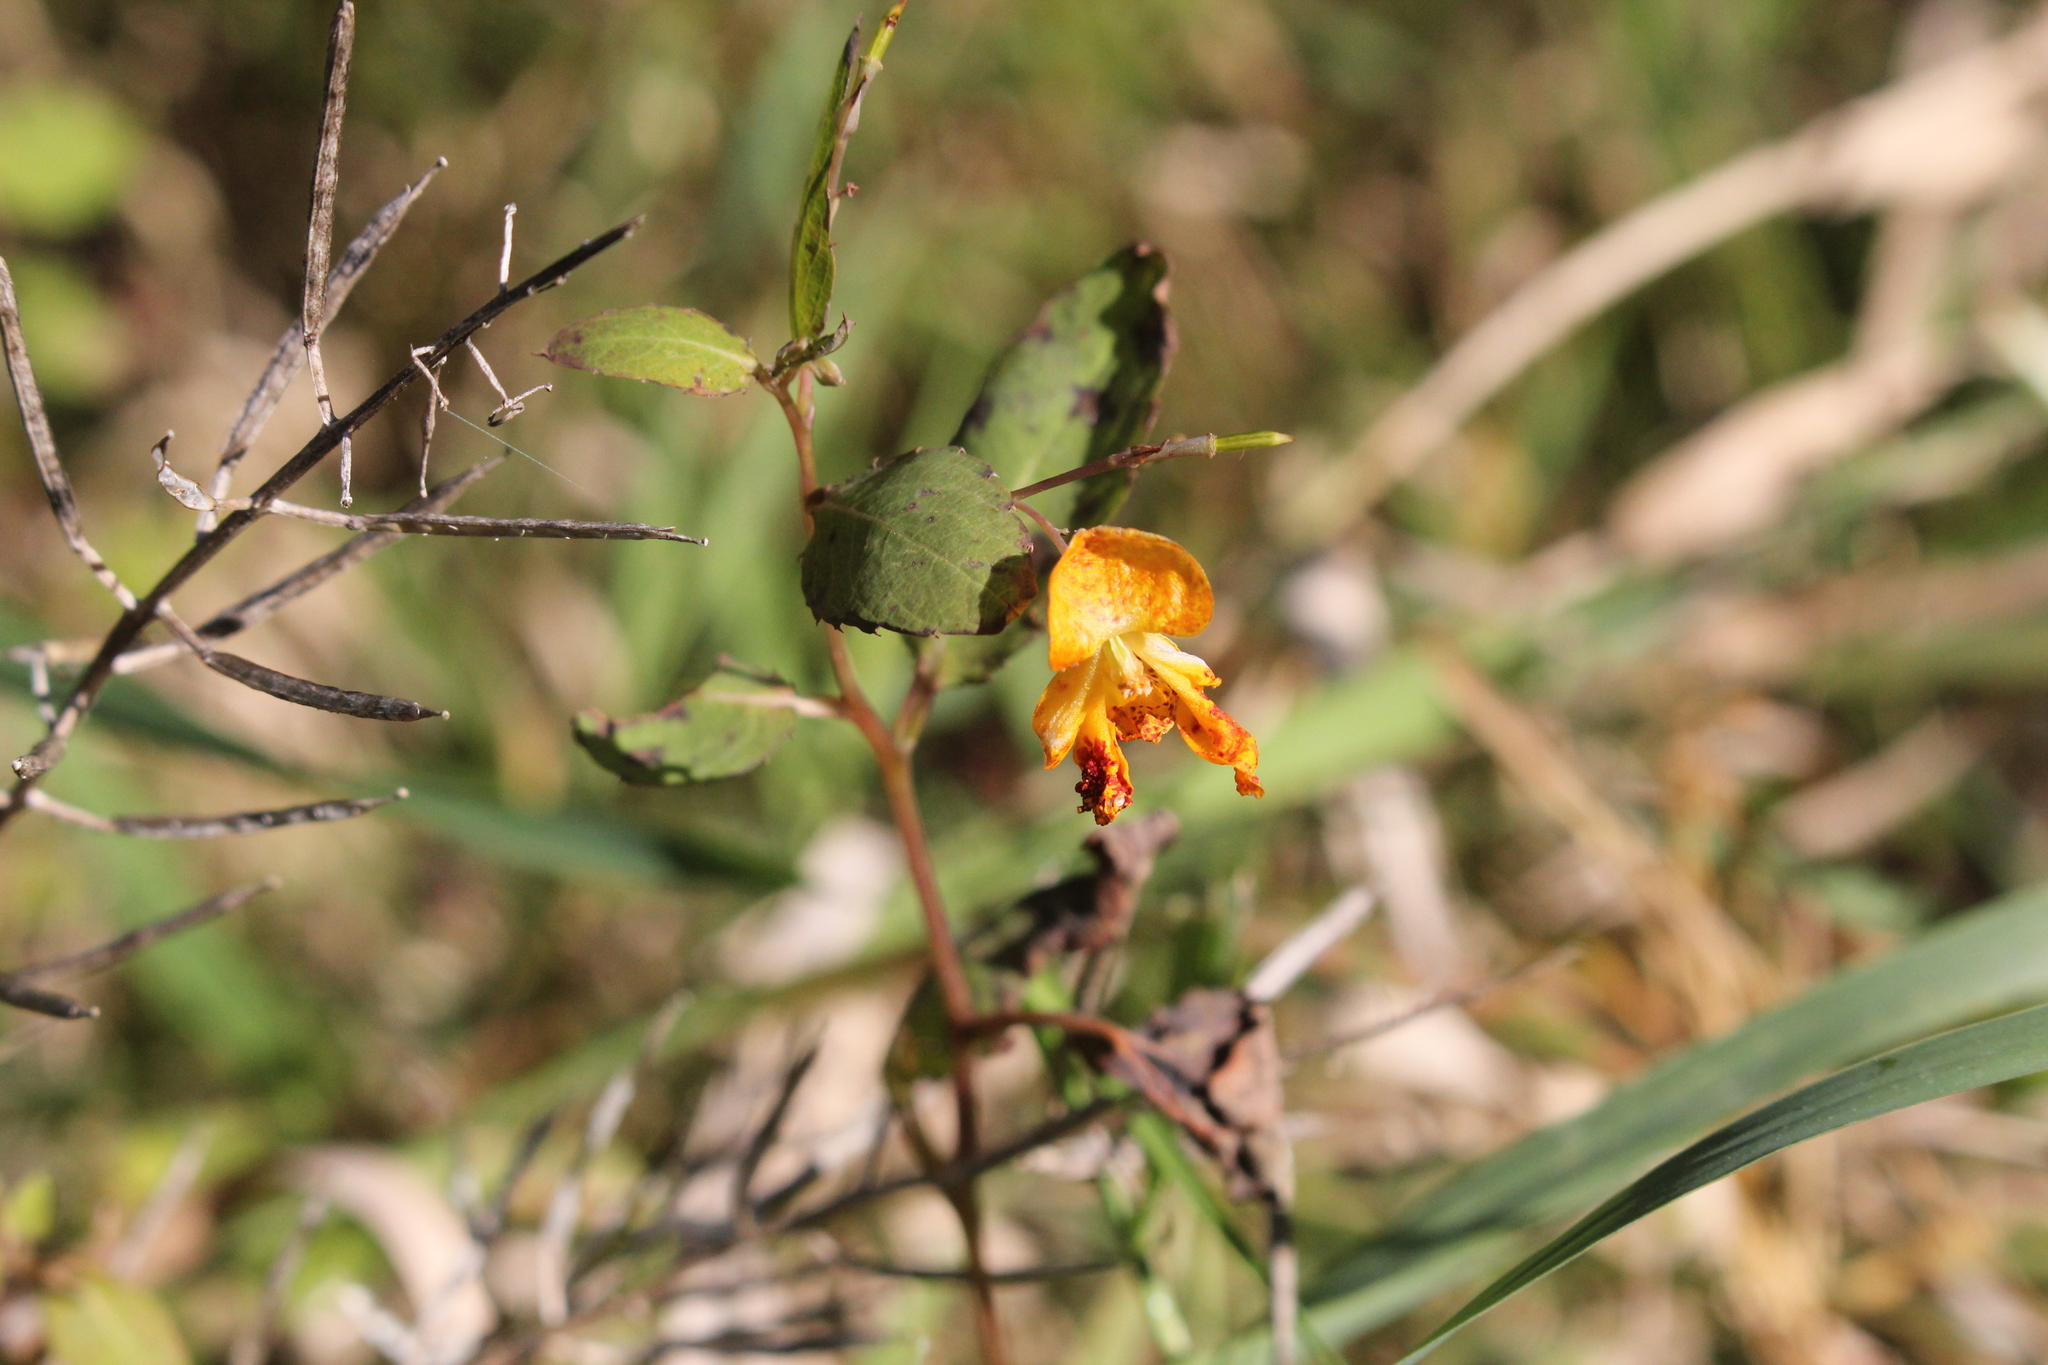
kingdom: Plantae
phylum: Tracheophyta
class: Magnoliopsida
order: Ericales
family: Balsaminaceae
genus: Impatiens
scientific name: Impatiens capensis
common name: Orange balsam
